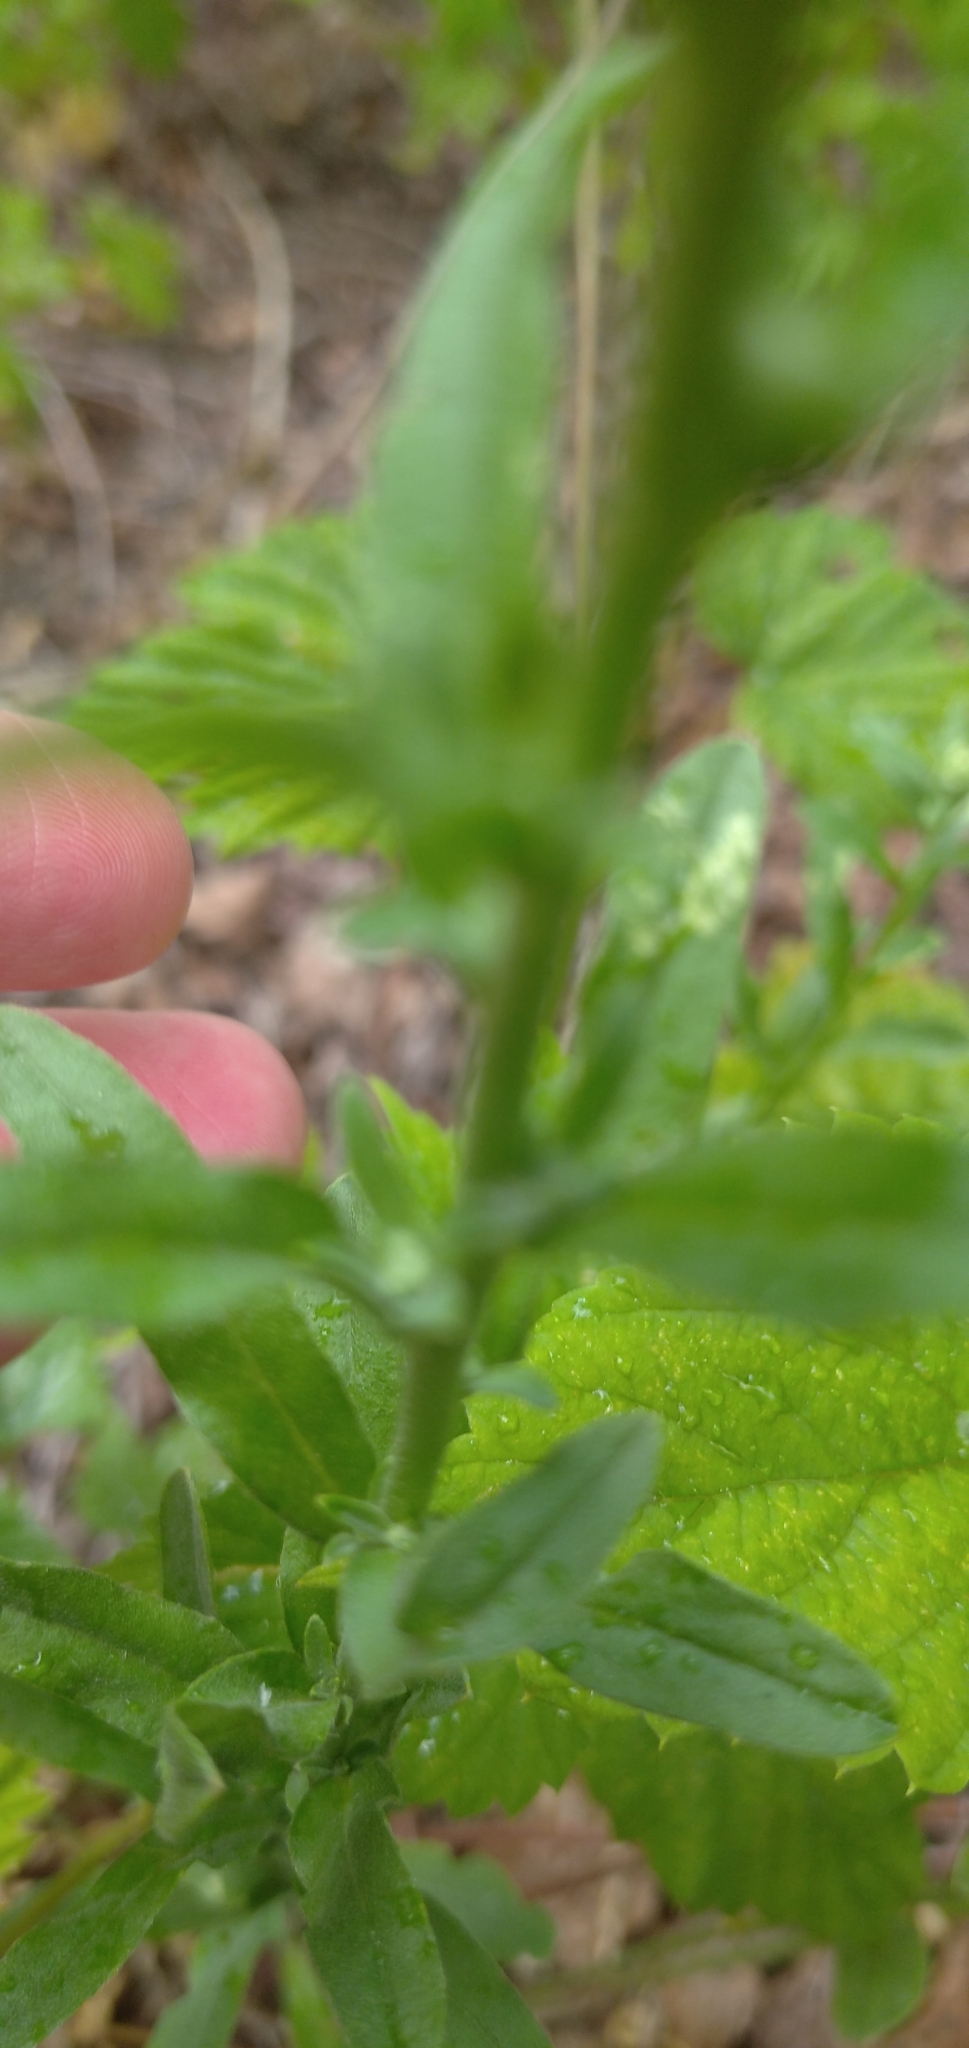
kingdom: Plantae
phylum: Tracheophyta
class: Magnoliopsida
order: Brassicales
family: Brassicaceae
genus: Berteroa
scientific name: Berteroa incana
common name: Hoary alison
